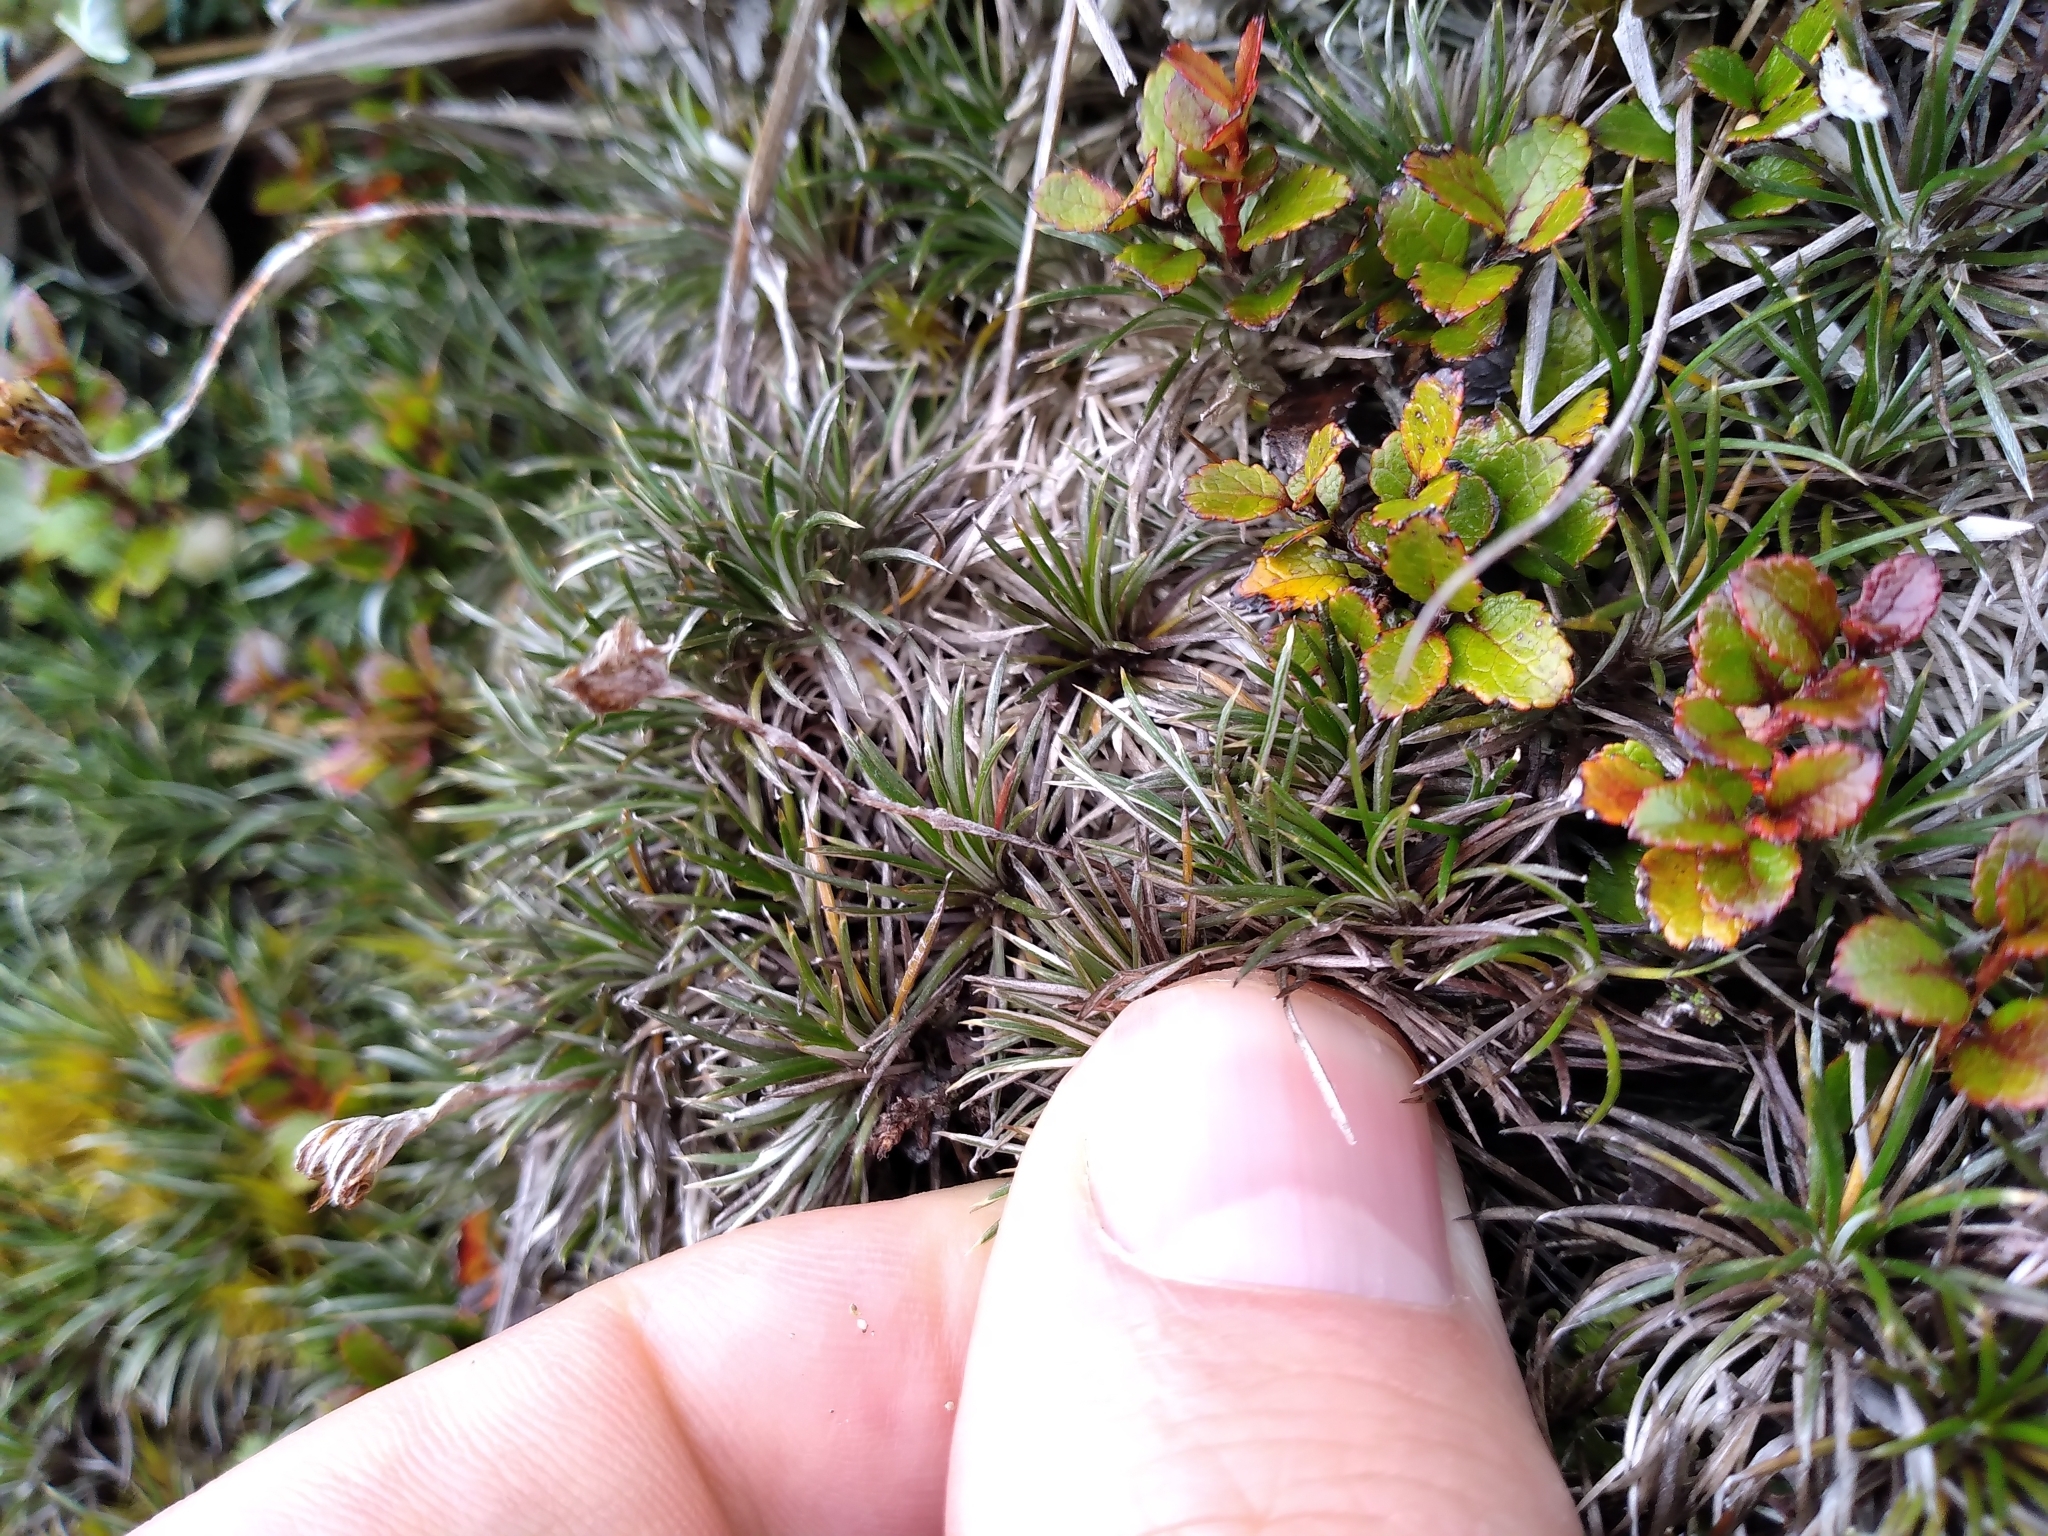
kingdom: Plantae
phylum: Tracheophyta
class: Magnoliopsida
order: Asterales
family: Asteraceae
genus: Celmisia
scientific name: Celmisia laricifolia
